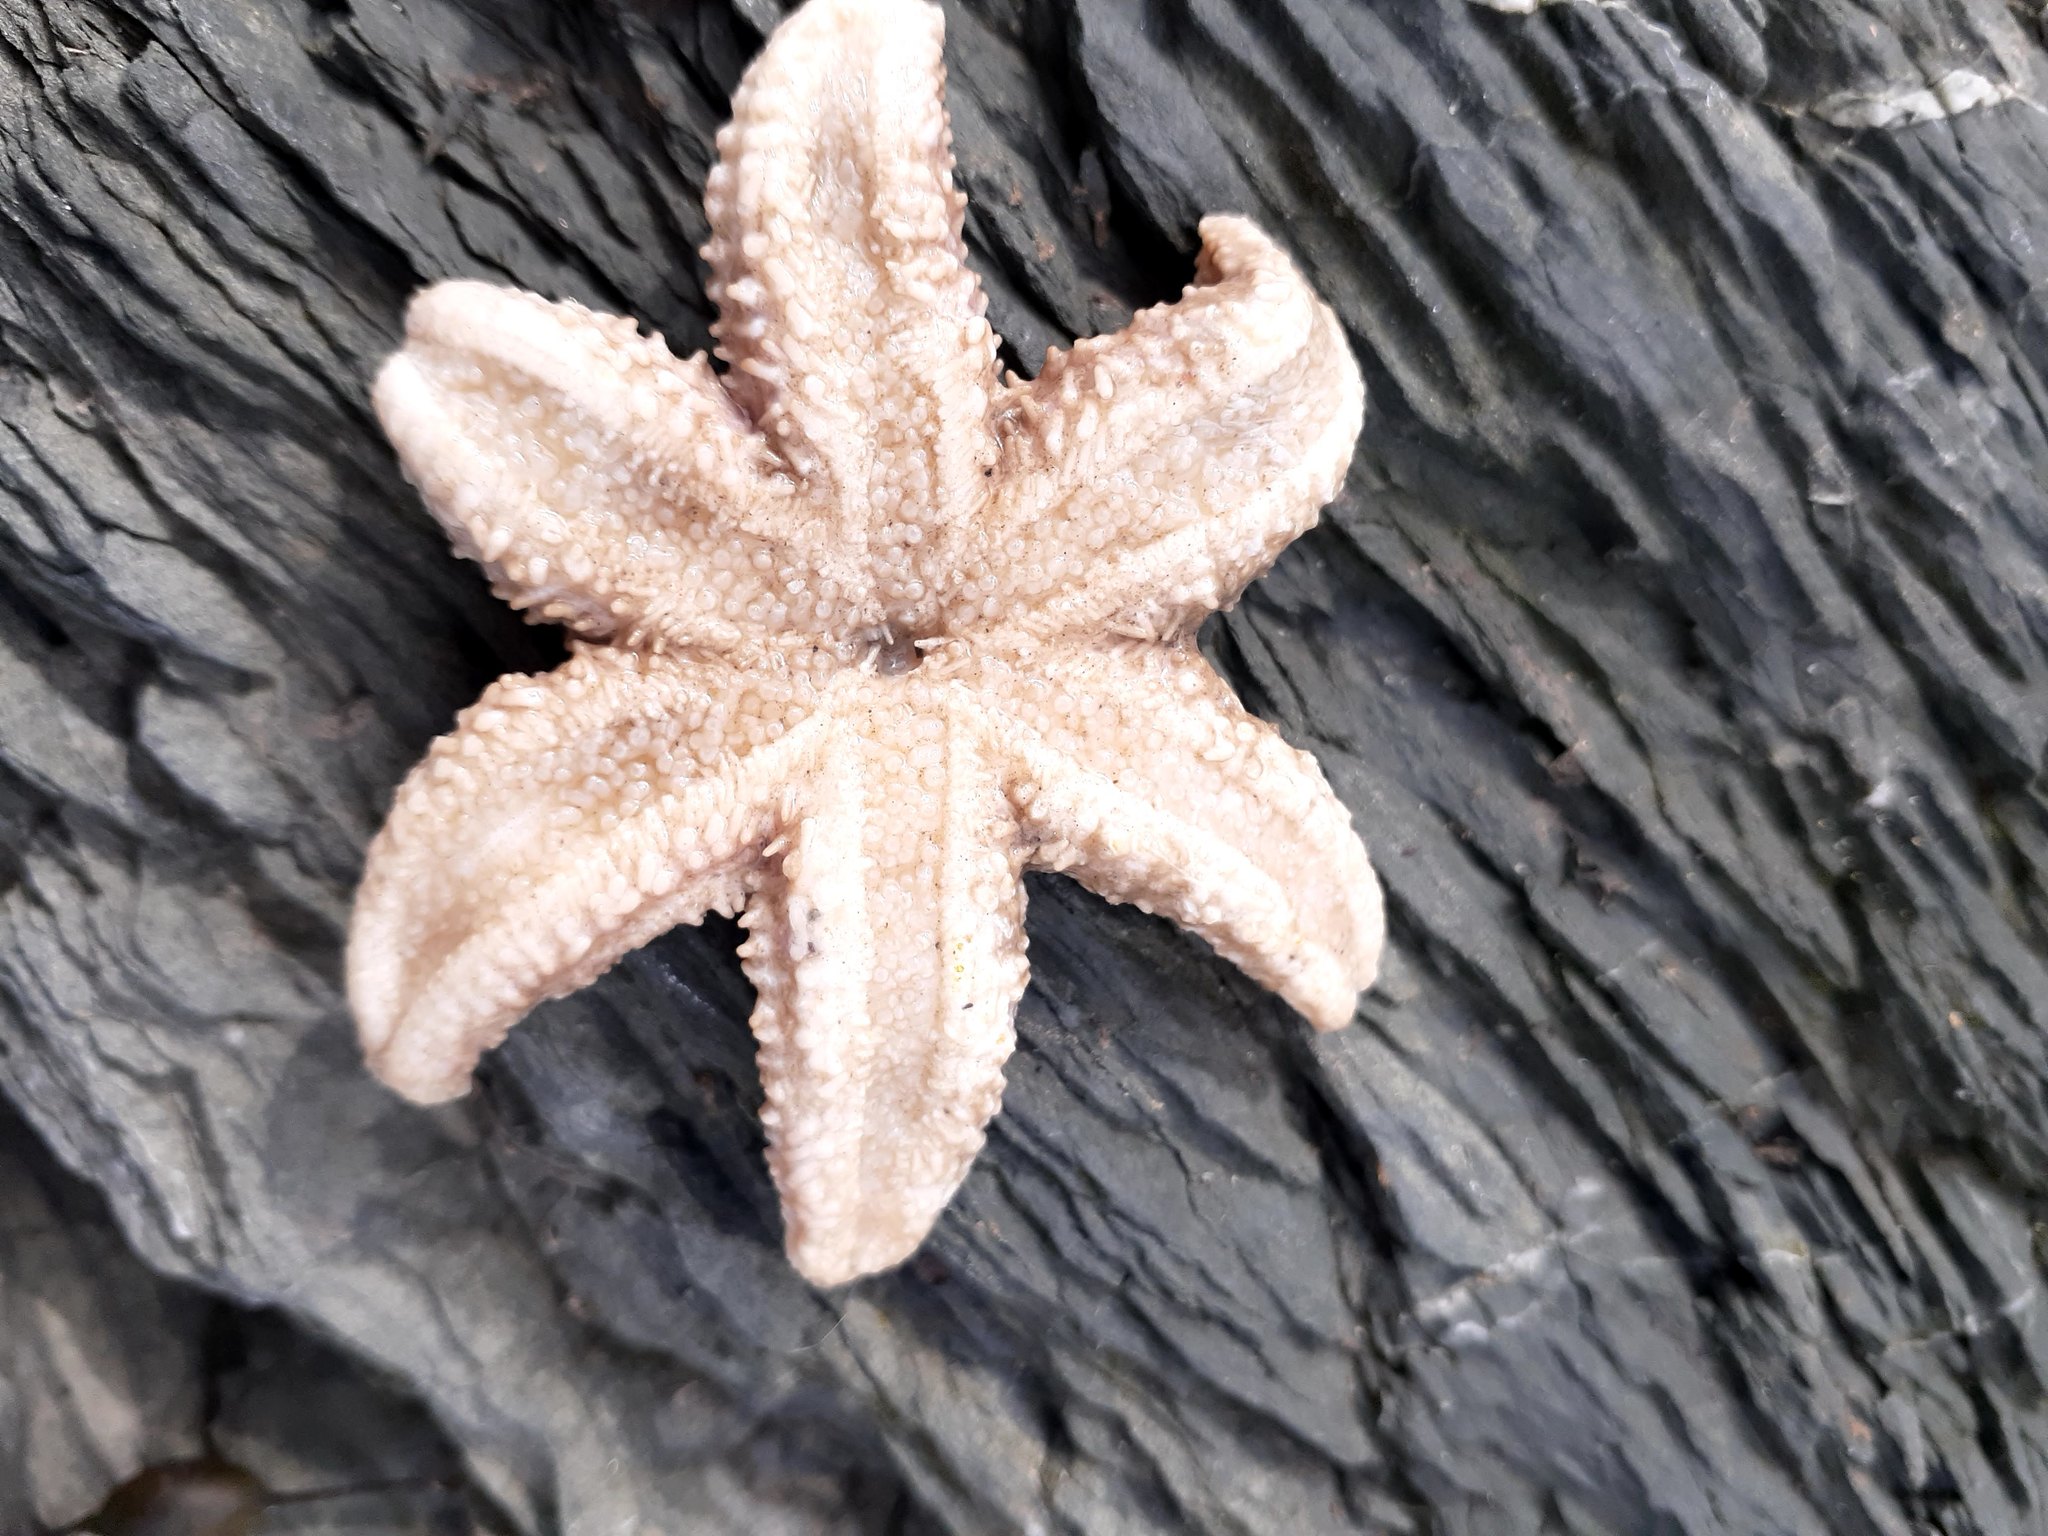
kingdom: Animalia
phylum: Echinodermata
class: Asteroidea
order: Forcipulatida
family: Asteriidae
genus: Leptasterias
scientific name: Leptasterias polaris
